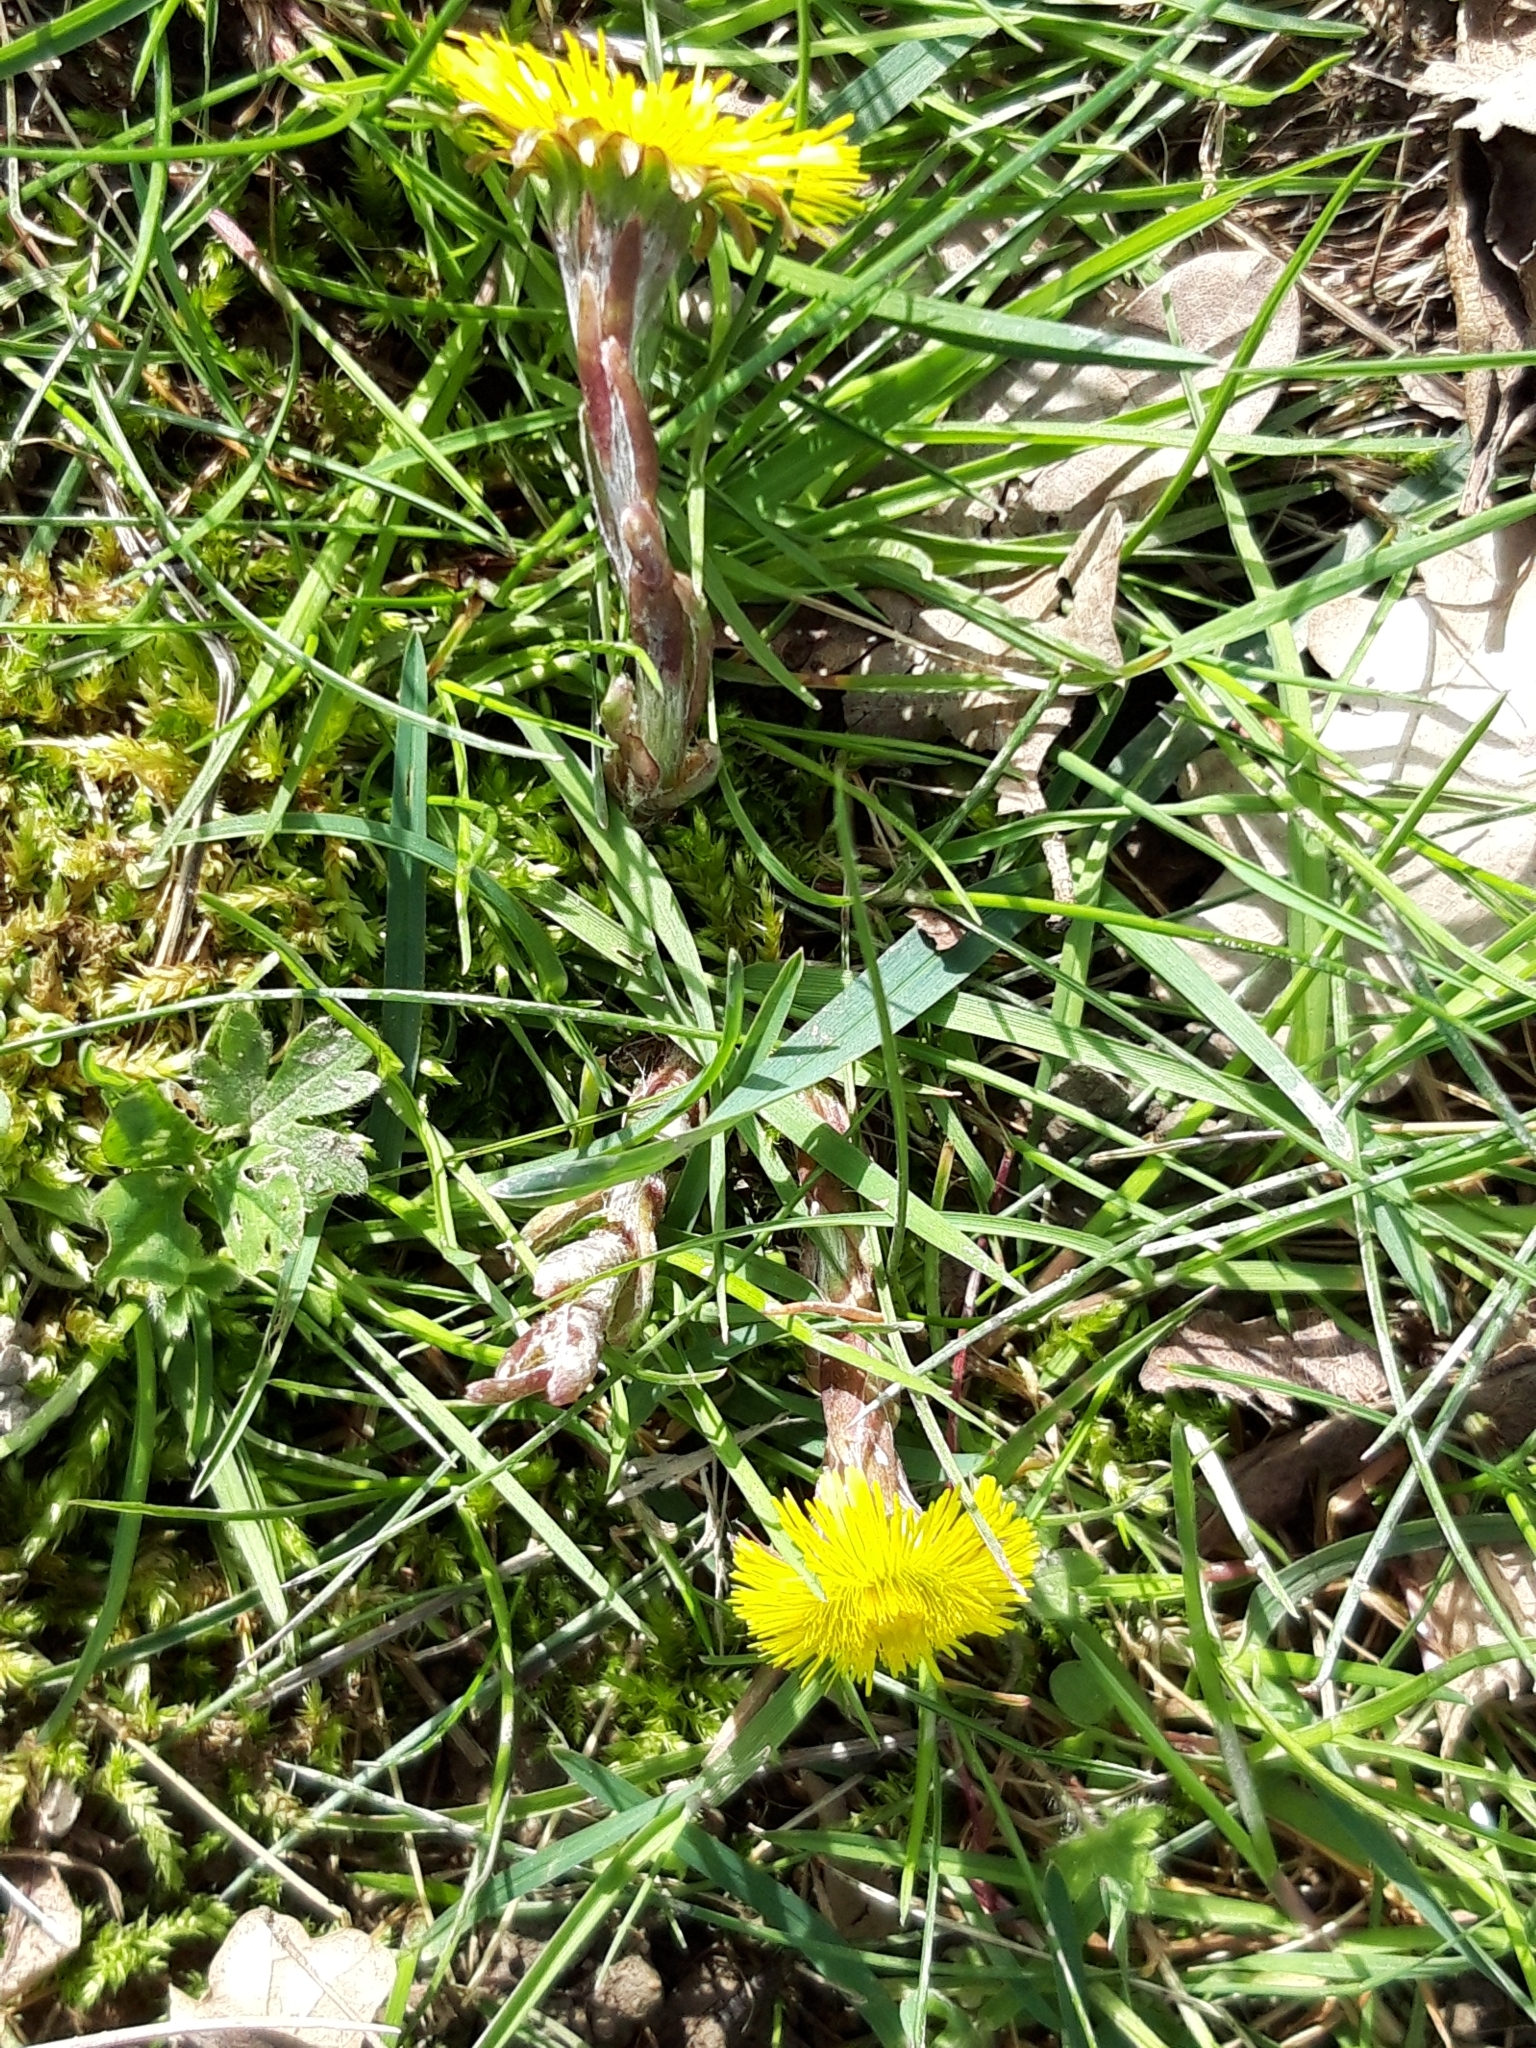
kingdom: Plantae
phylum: Tracheophyta
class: Magnoliopsida
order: Asterales
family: Asteraceae
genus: Tussilago
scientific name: Tussilago farfara
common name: Coltsfoot
